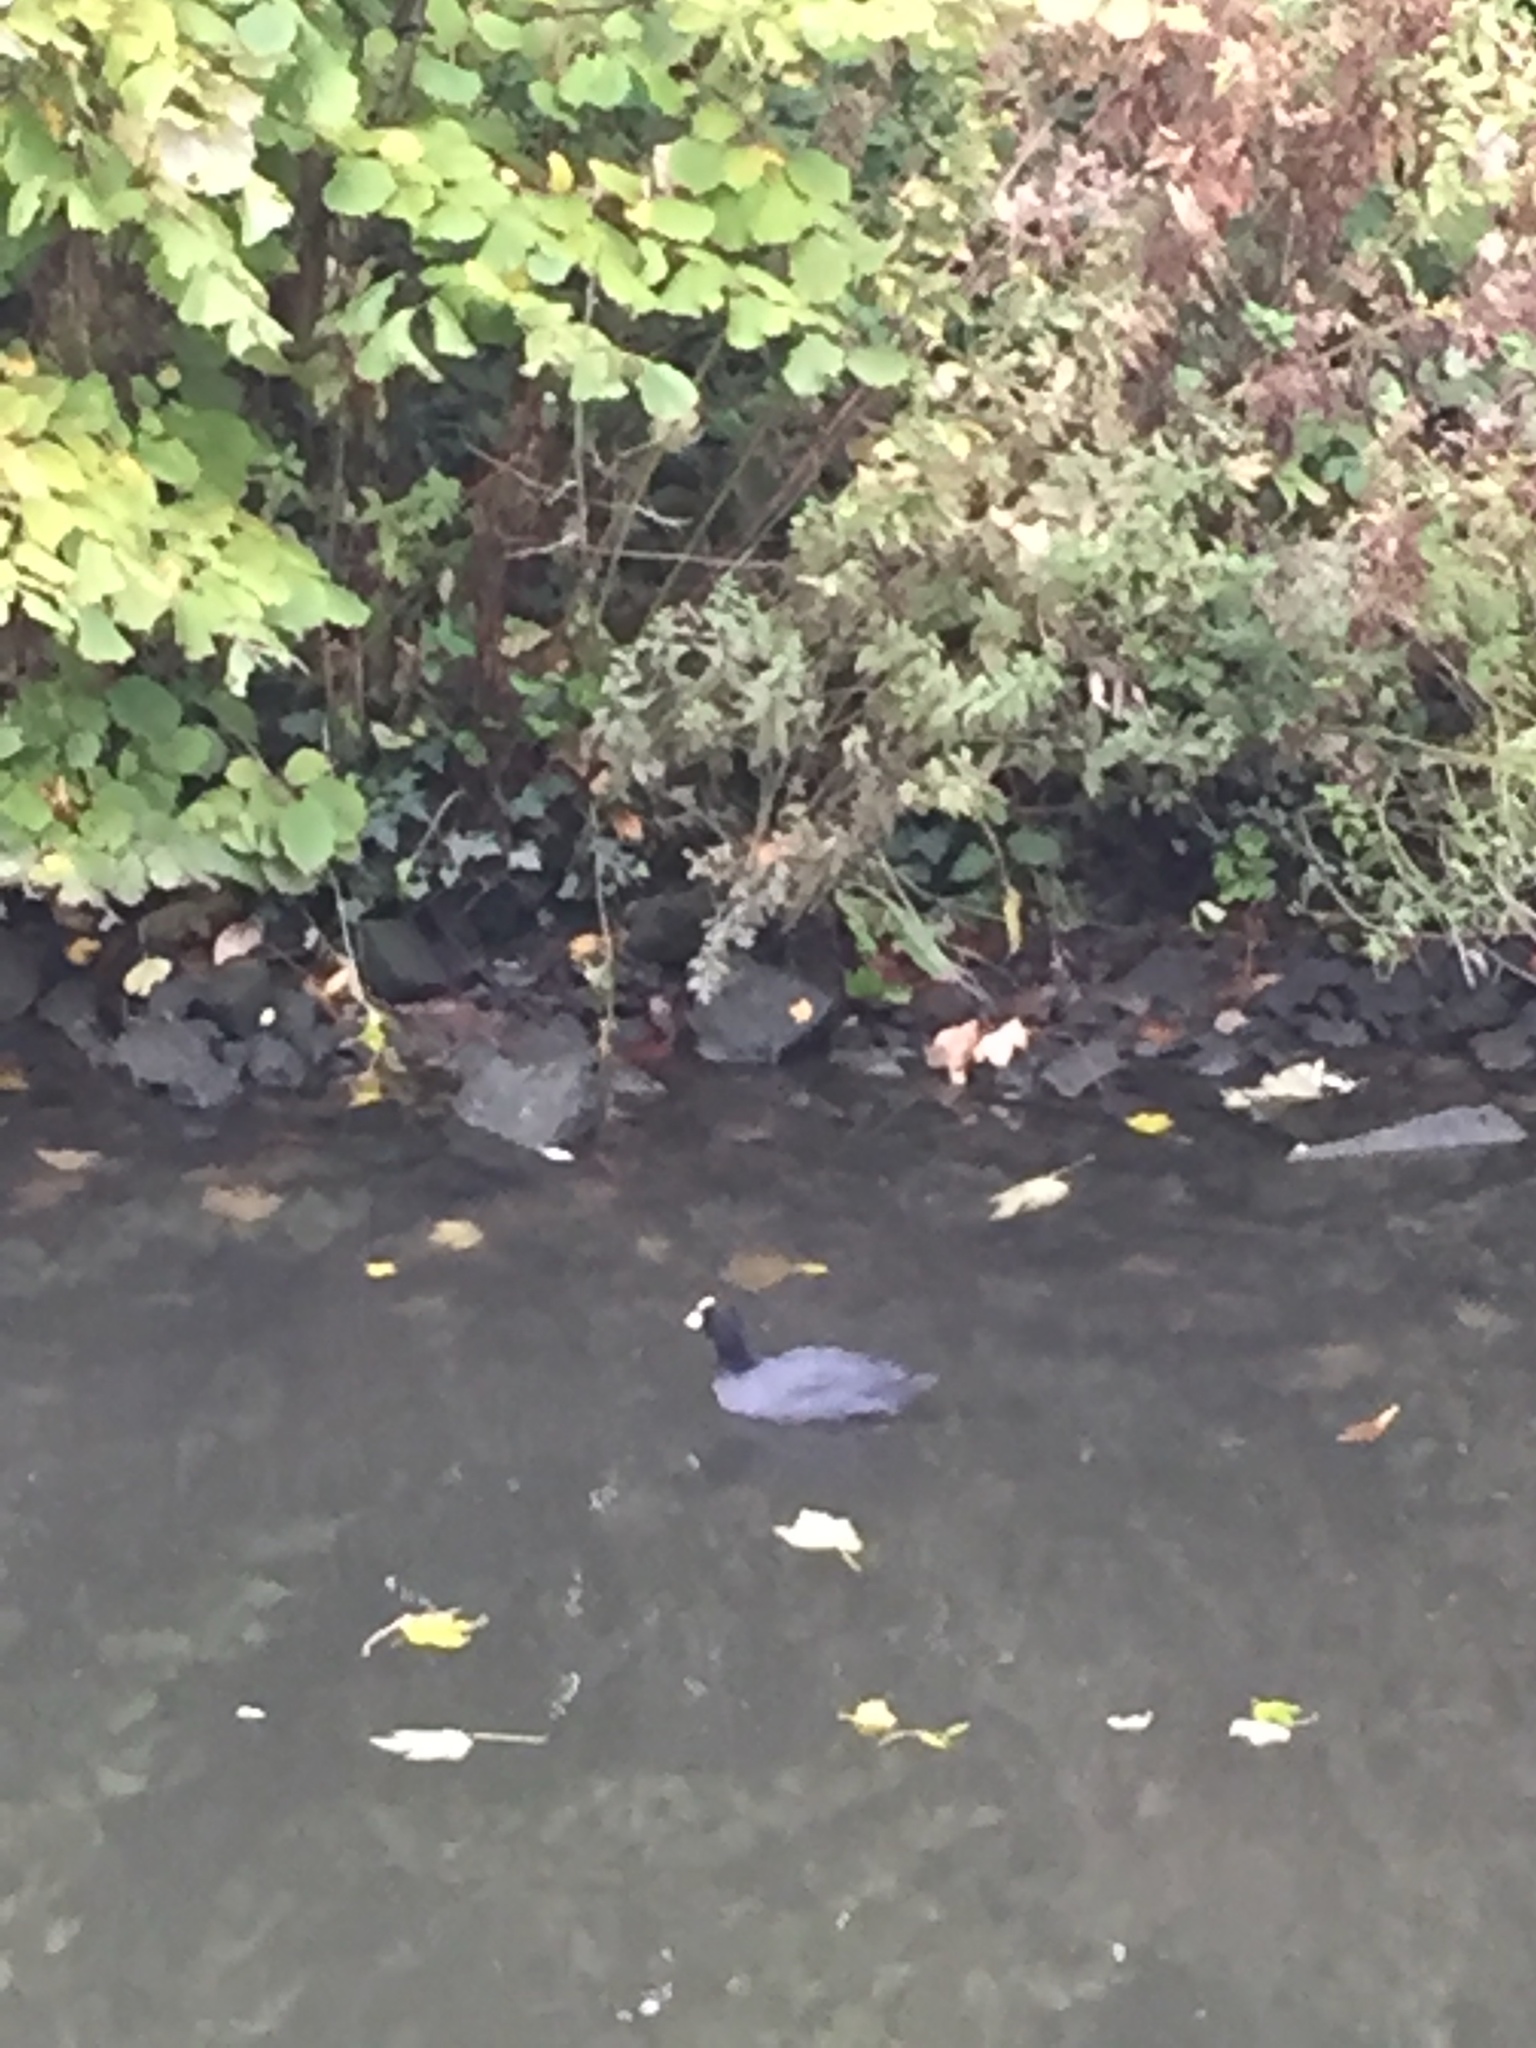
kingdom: Animalia
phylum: Chordata
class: Aves
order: Gruiformes
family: Rallidae
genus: Fulica
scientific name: Fulica atra
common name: Eurasian coot
